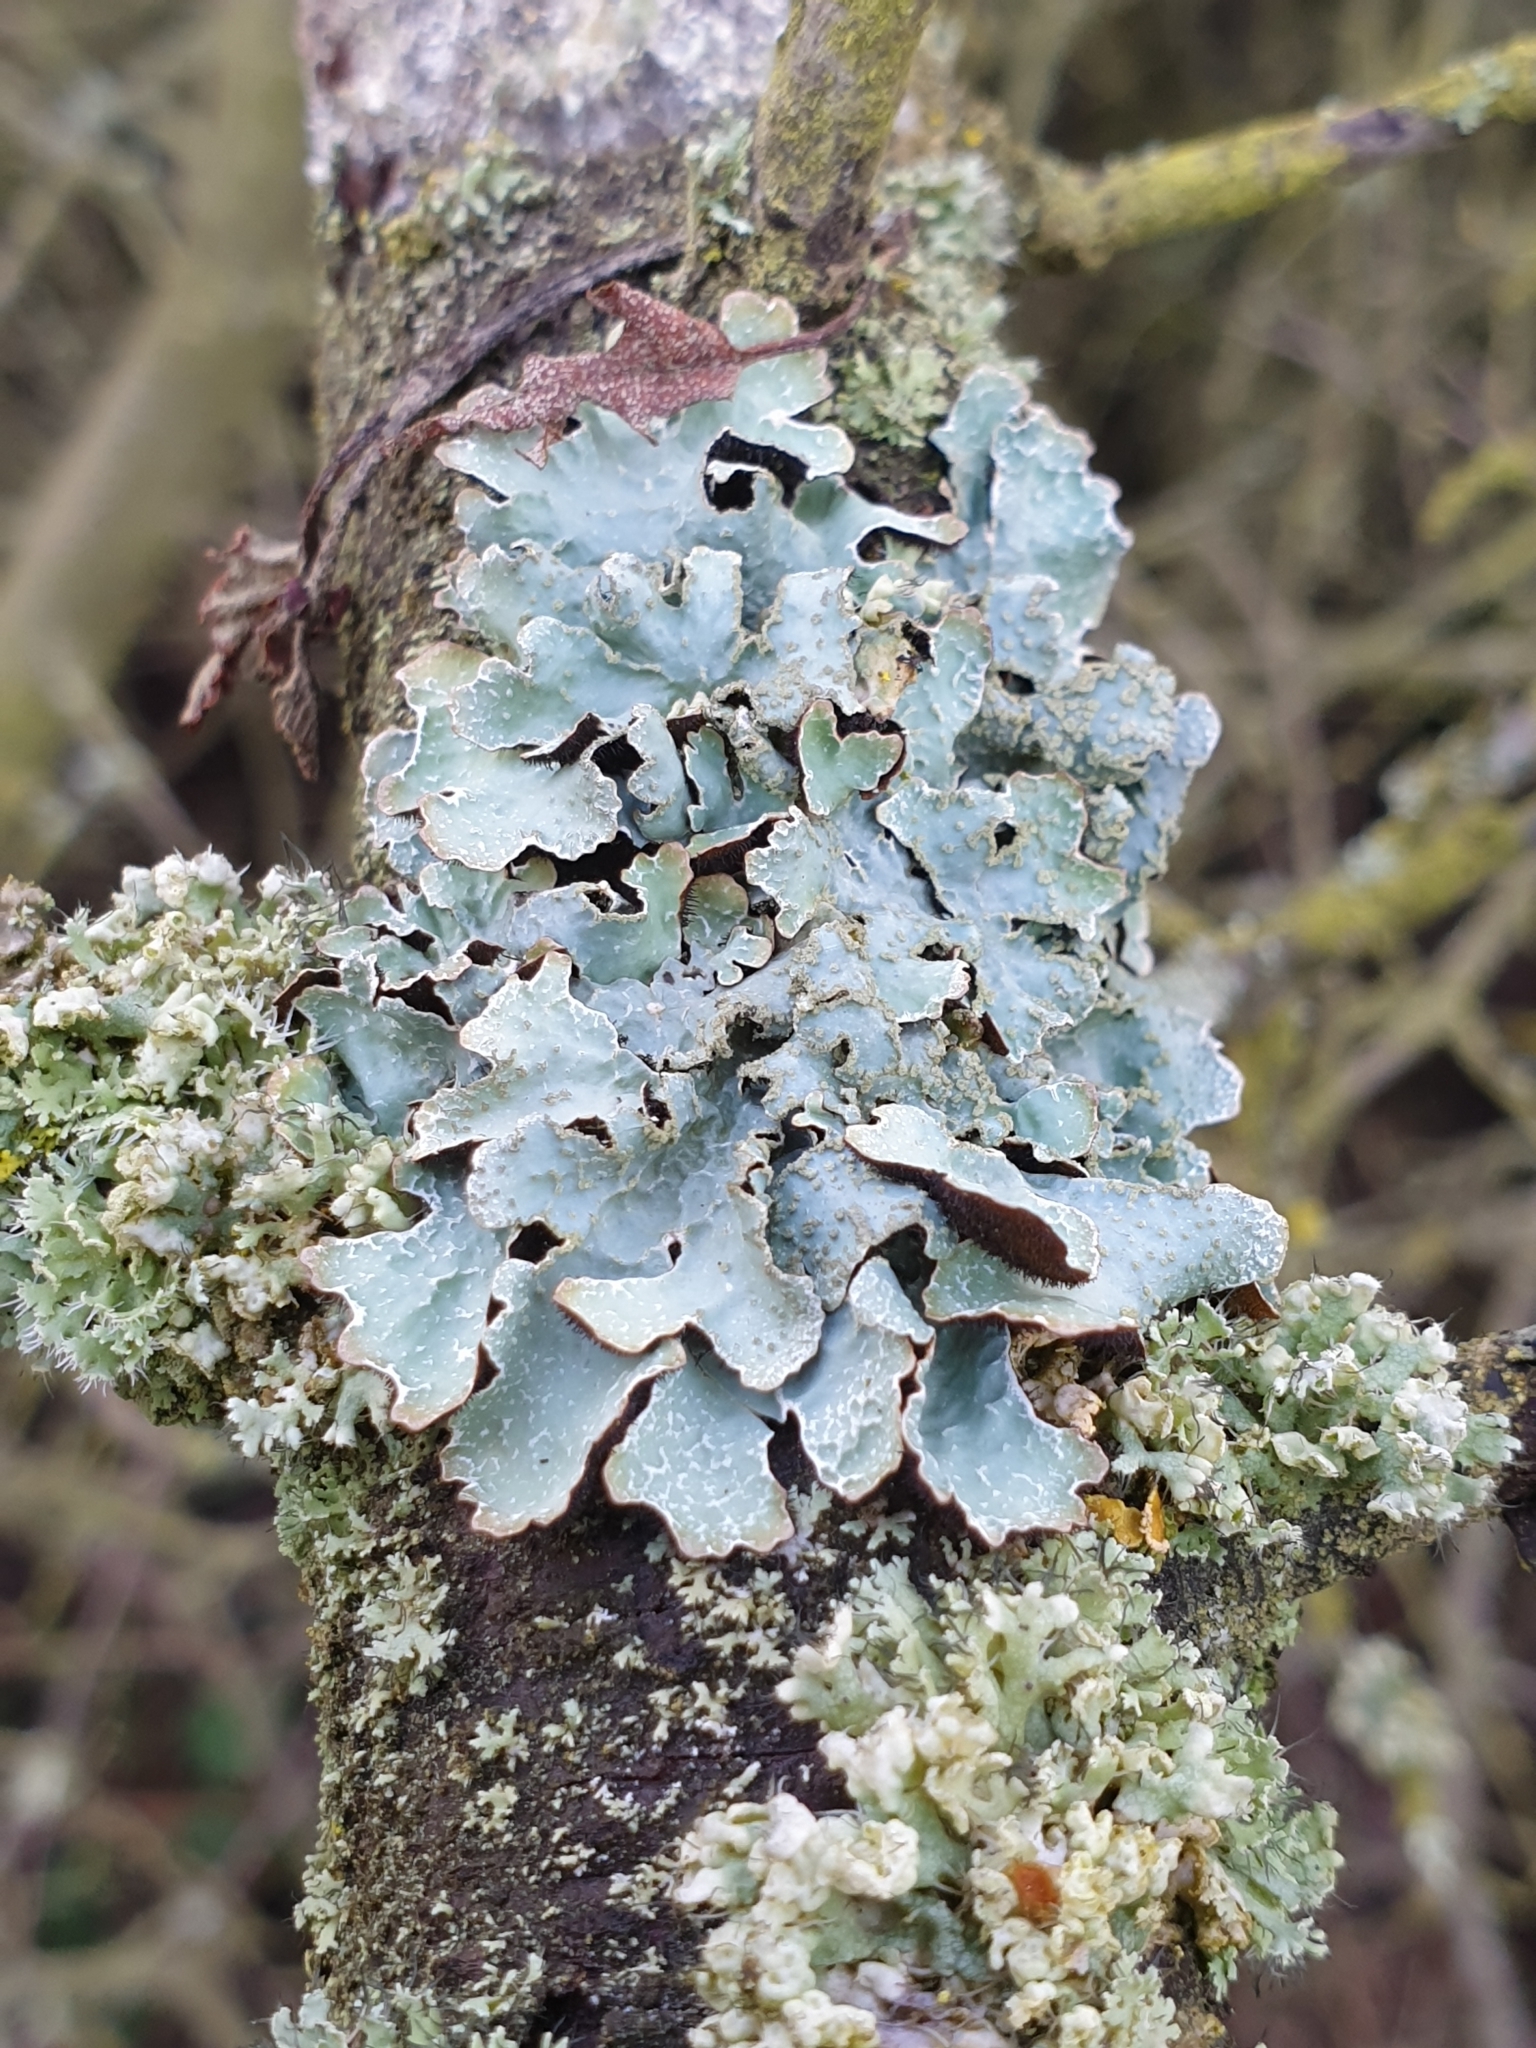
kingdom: Fungi
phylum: Ascomycota
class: Lecanoromycetes
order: Lecanorales
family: Parmeliaceae
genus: Parmelia
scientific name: Parmelia sulcata
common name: Netted shield lichen
